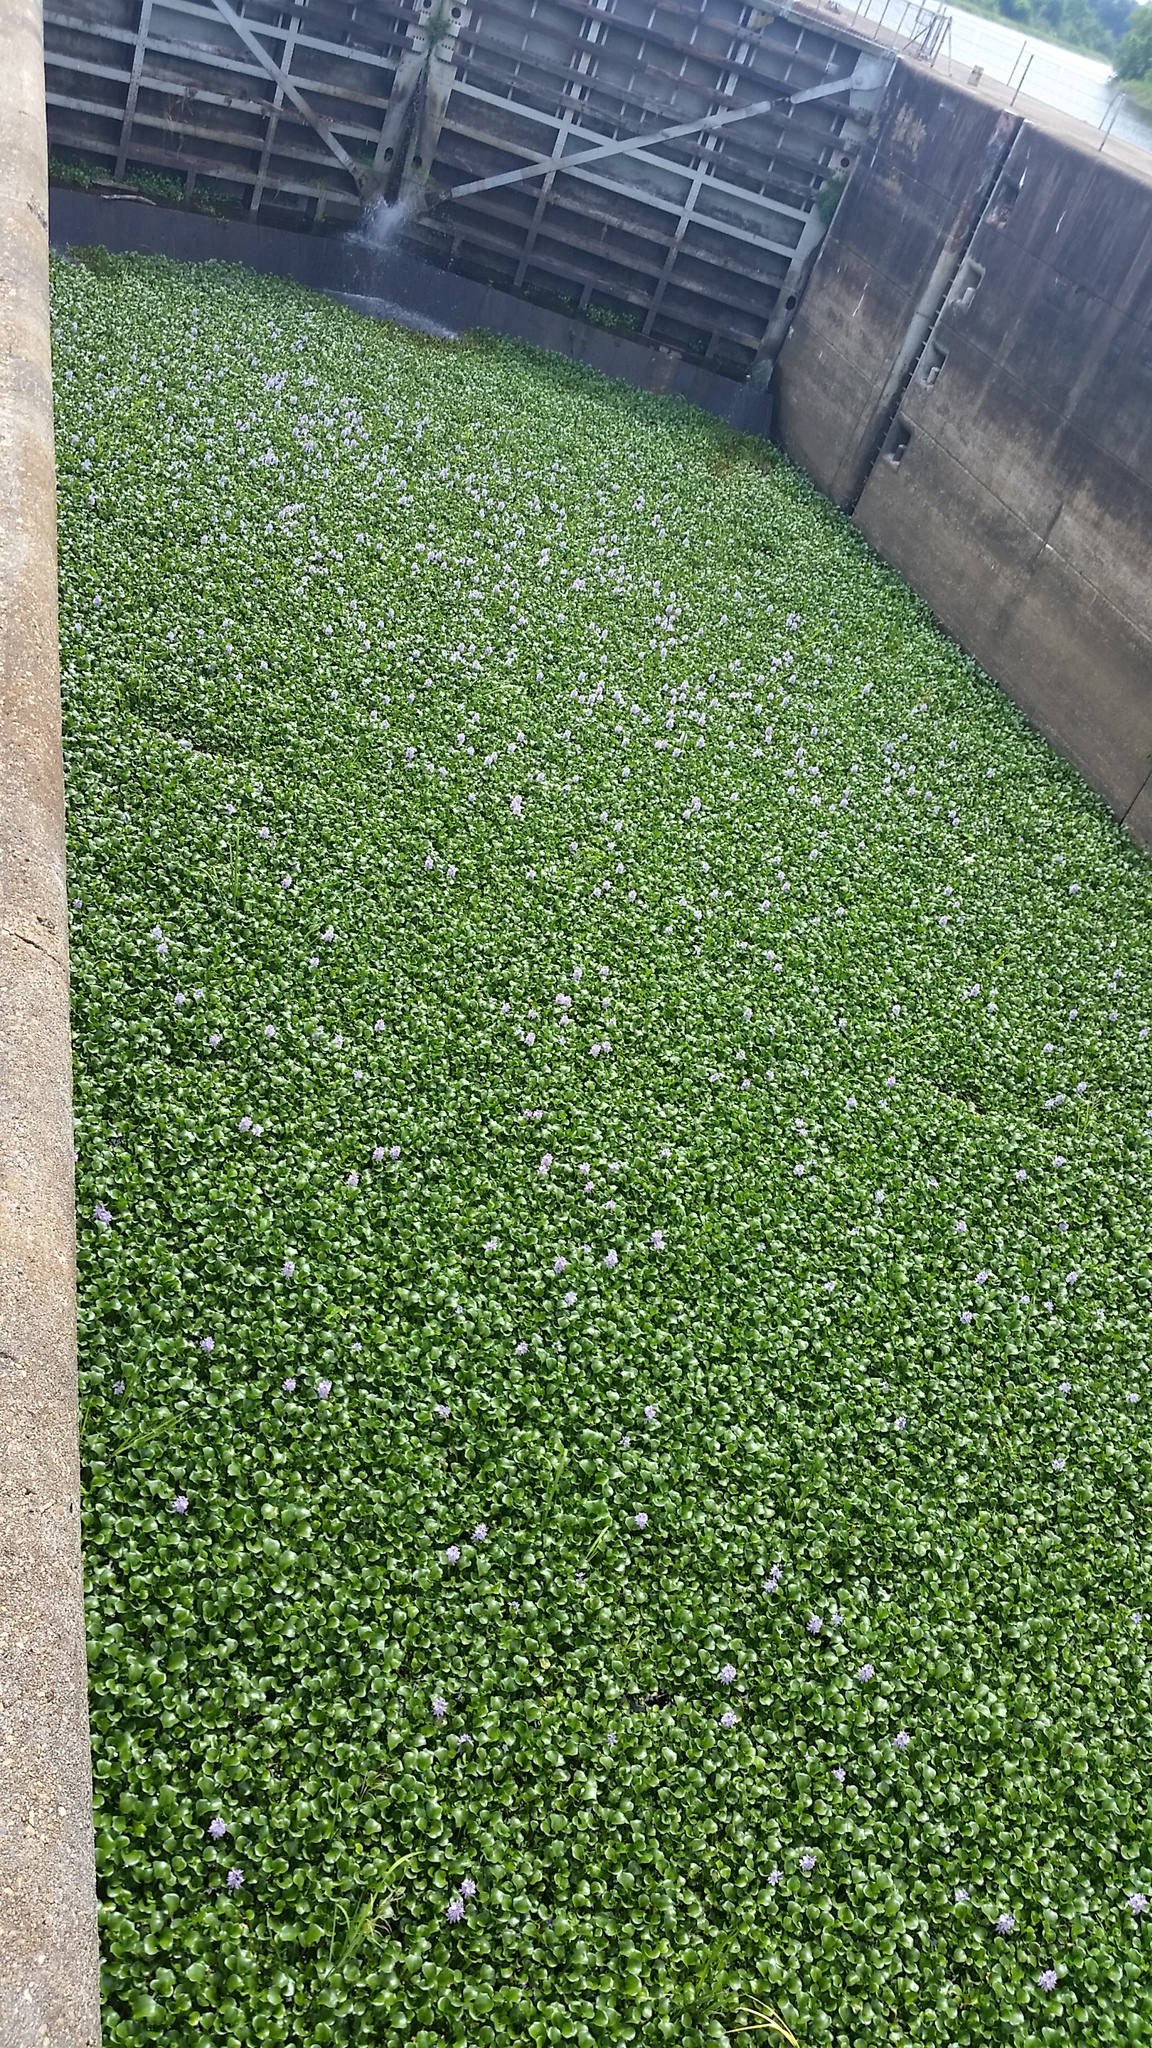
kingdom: Plantae
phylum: Tracheophyta
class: Liliopsida
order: Commelinales
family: Pontederiaceae
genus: Pontederia
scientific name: Pontederia crassipes
